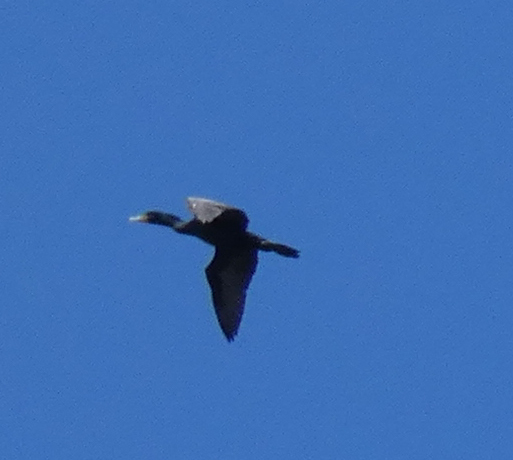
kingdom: Animalia
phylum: Chordata
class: Aves
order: Suliformes
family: Phalacrocoracidae
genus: Phalacrocorax
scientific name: Phalacrocorax auritus
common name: Double-crested cormorant
